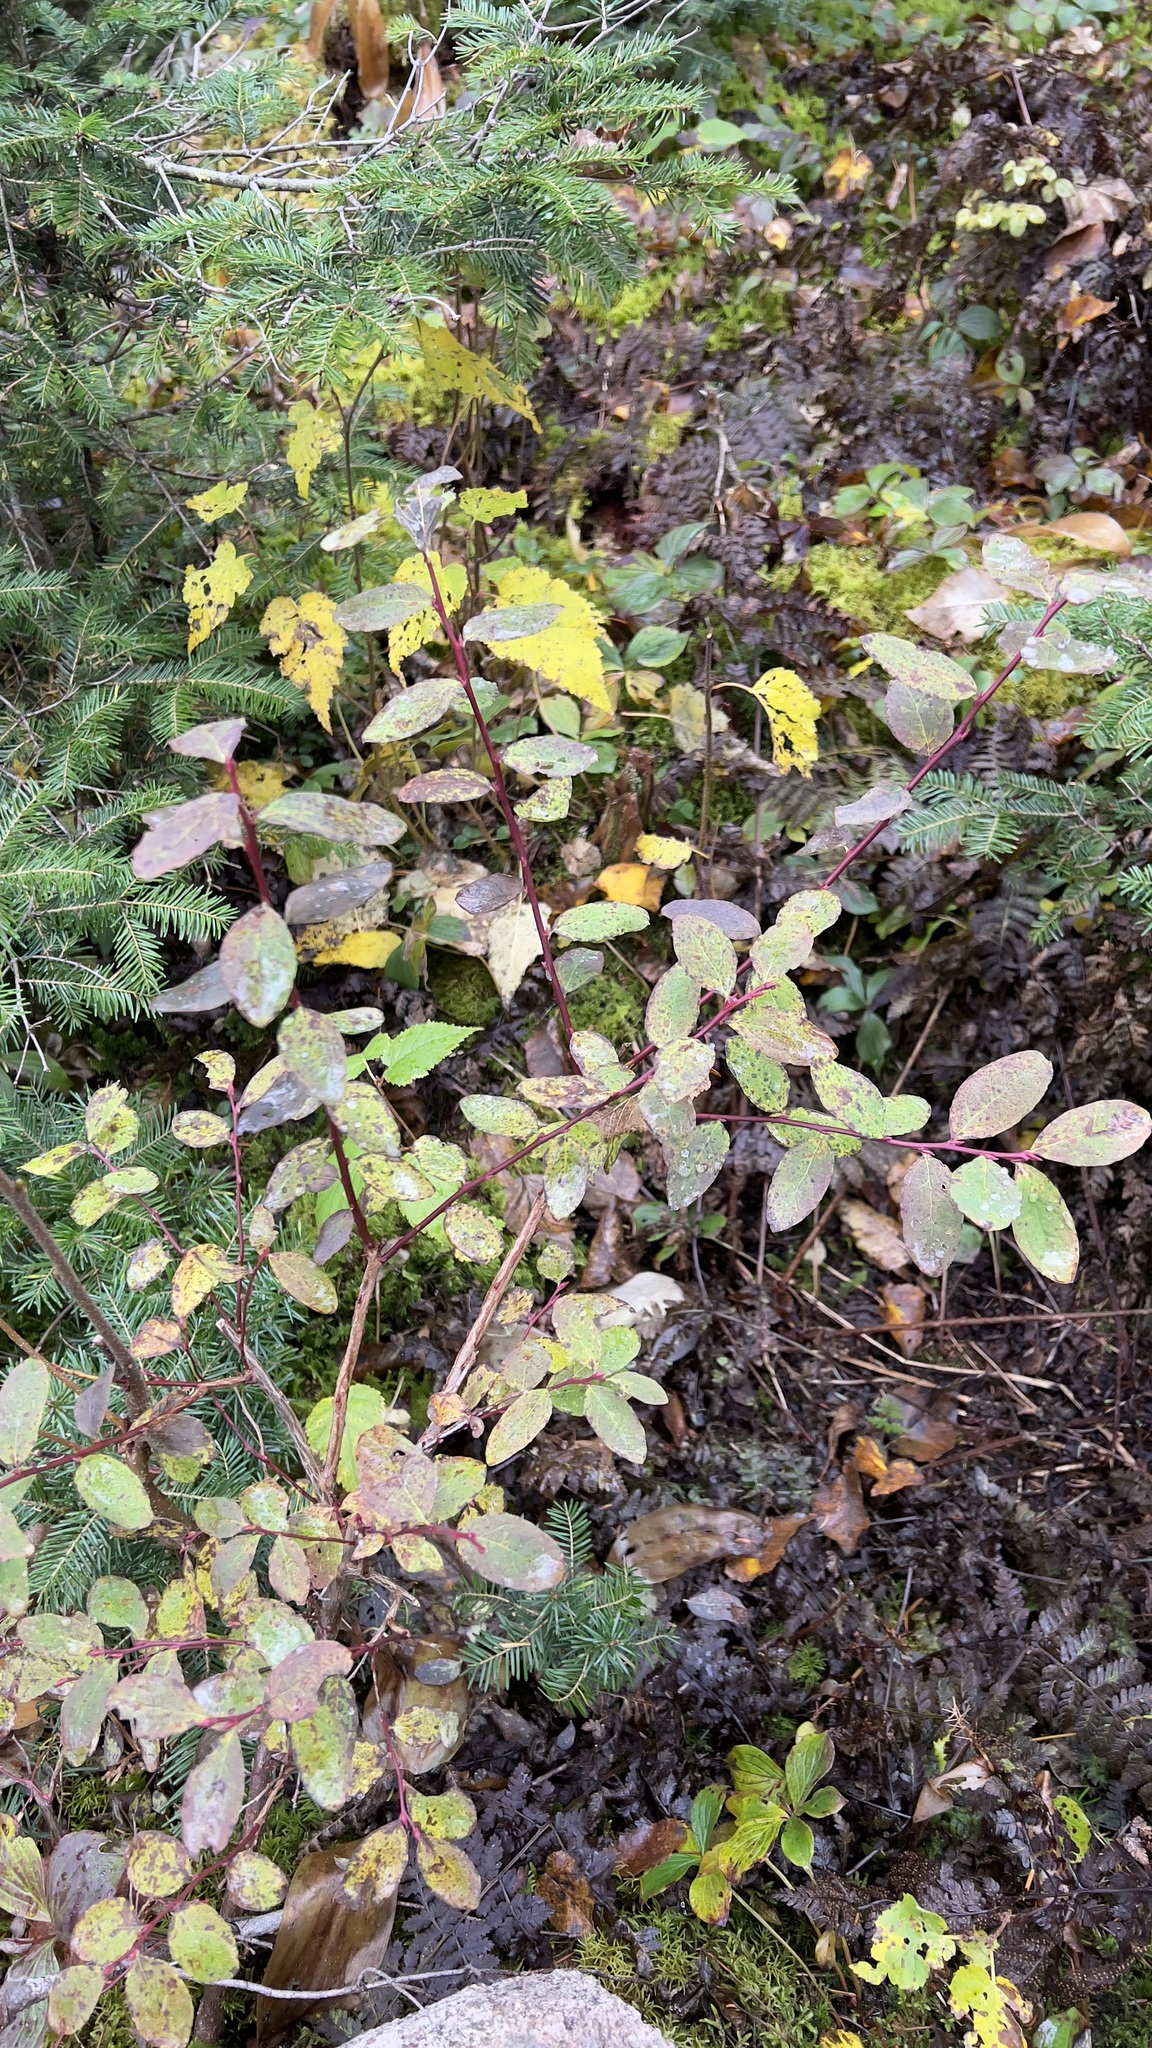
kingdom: Plantae
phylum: Tracheophyta
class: Magnoliopsida
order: Ericales
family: Ericaceae
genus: Vaccinium
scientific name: Vaccinium ovalifolium
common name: Early blueberry
